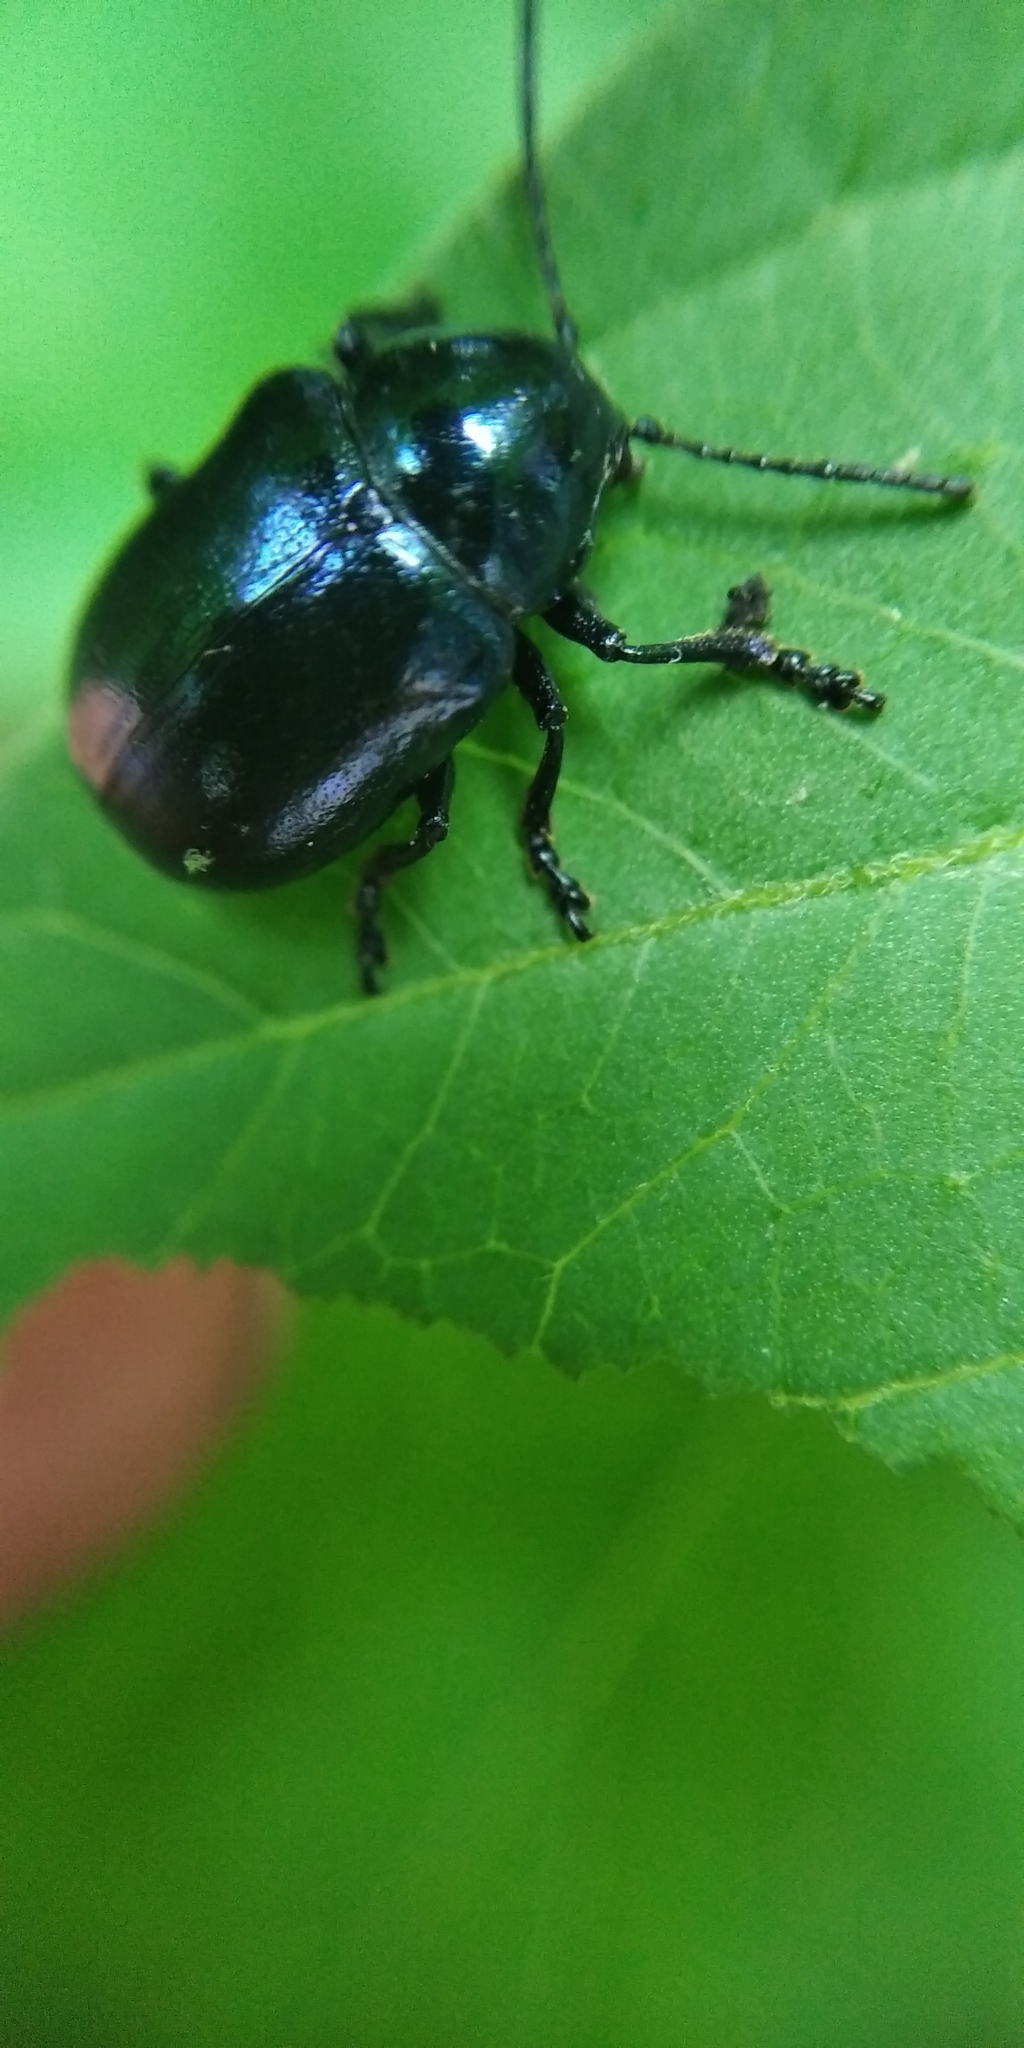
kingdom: Animalia
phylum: Arthropoda
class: Insecta
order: Coleoptera
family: Chrysomelidae
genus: Chrysochus
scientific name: Chrysochus asclepiadeus
